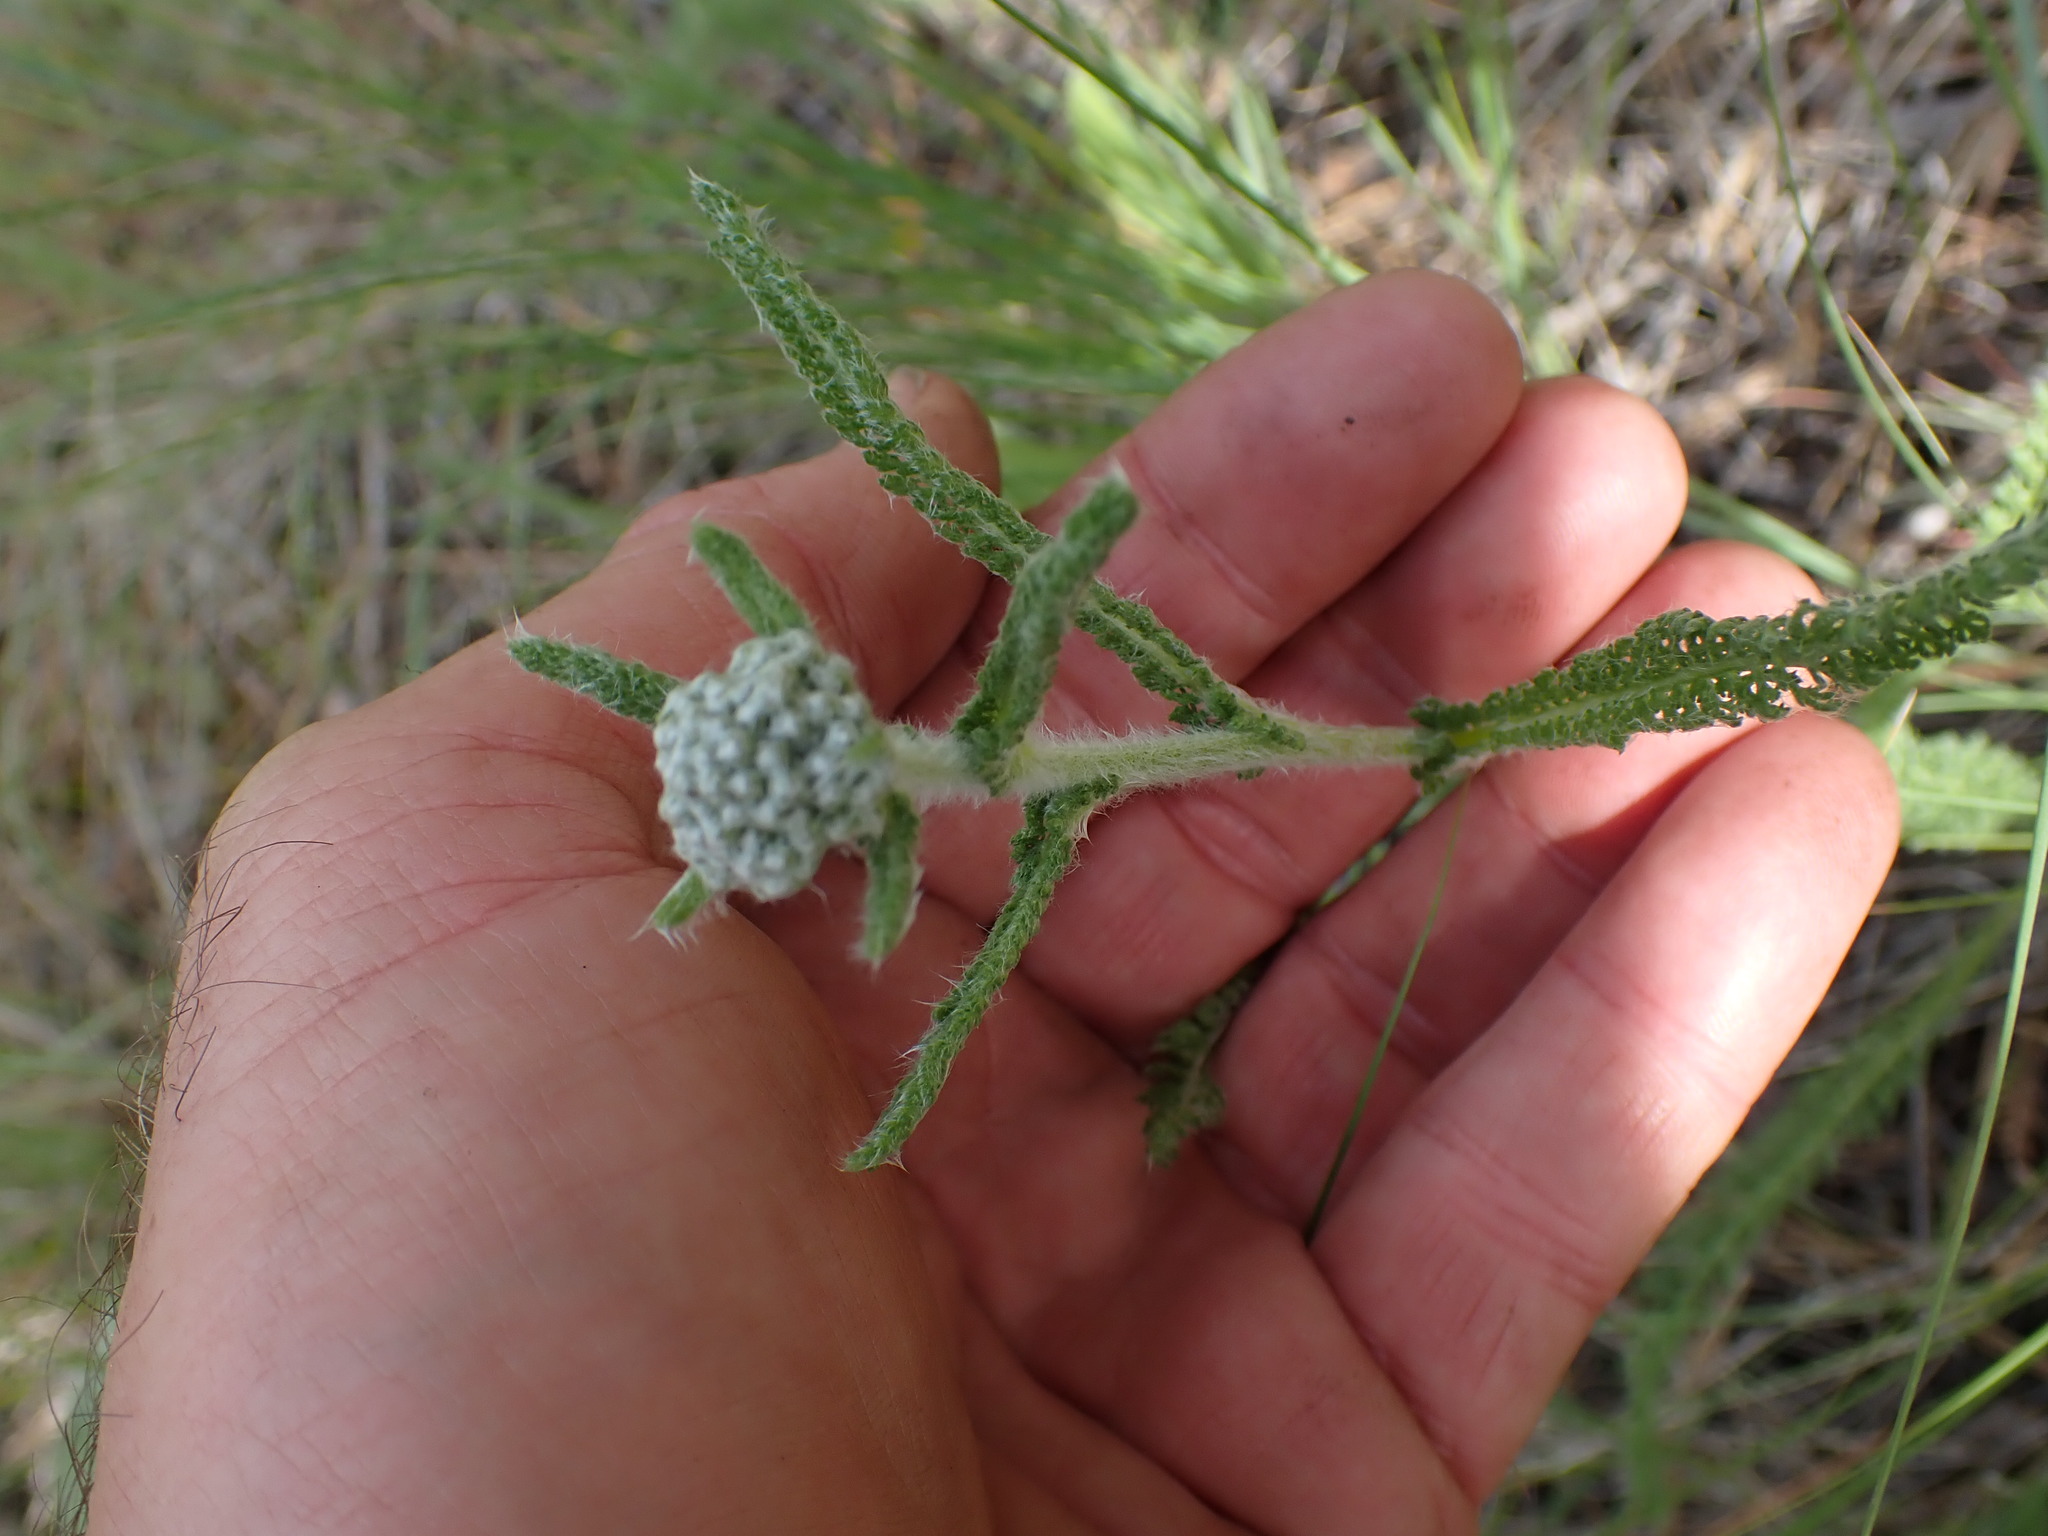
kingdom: Plantae
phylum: Tracheophyta
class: Magnoliopsida
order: Asterales
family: Asteraceae
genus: Achillea
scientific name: Achillea millefolium
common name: Yarrow
